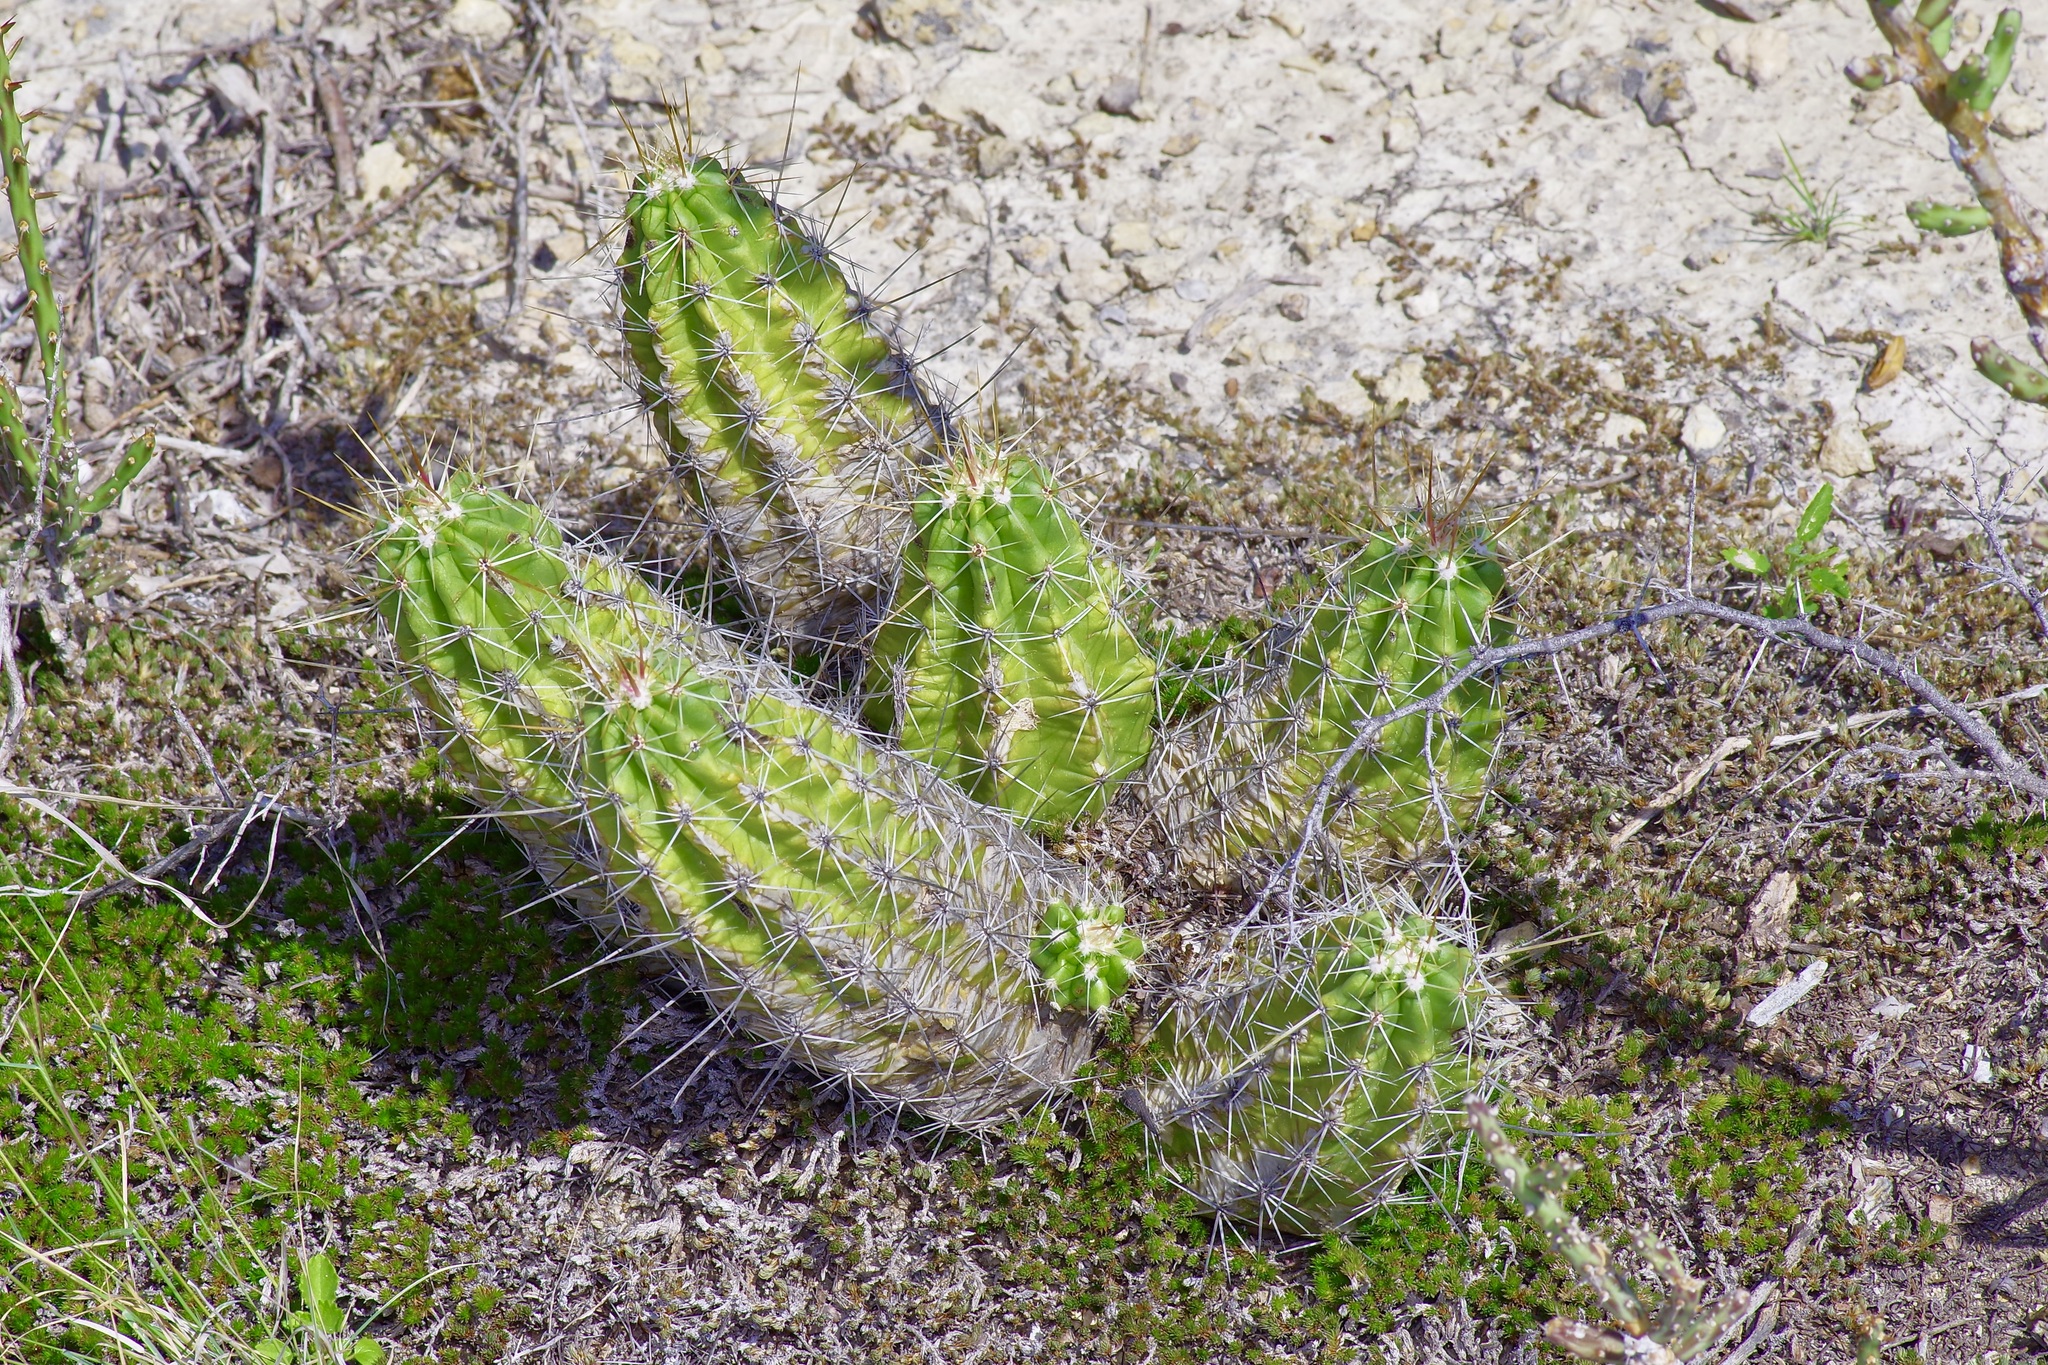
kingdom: Plantae
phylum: Tracheophyta
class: Magnoliopsida
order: Caryophyllales
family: Cactaceae
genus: Echinocereus
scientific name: Echinocereus enneacanthus
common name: Pitaya
